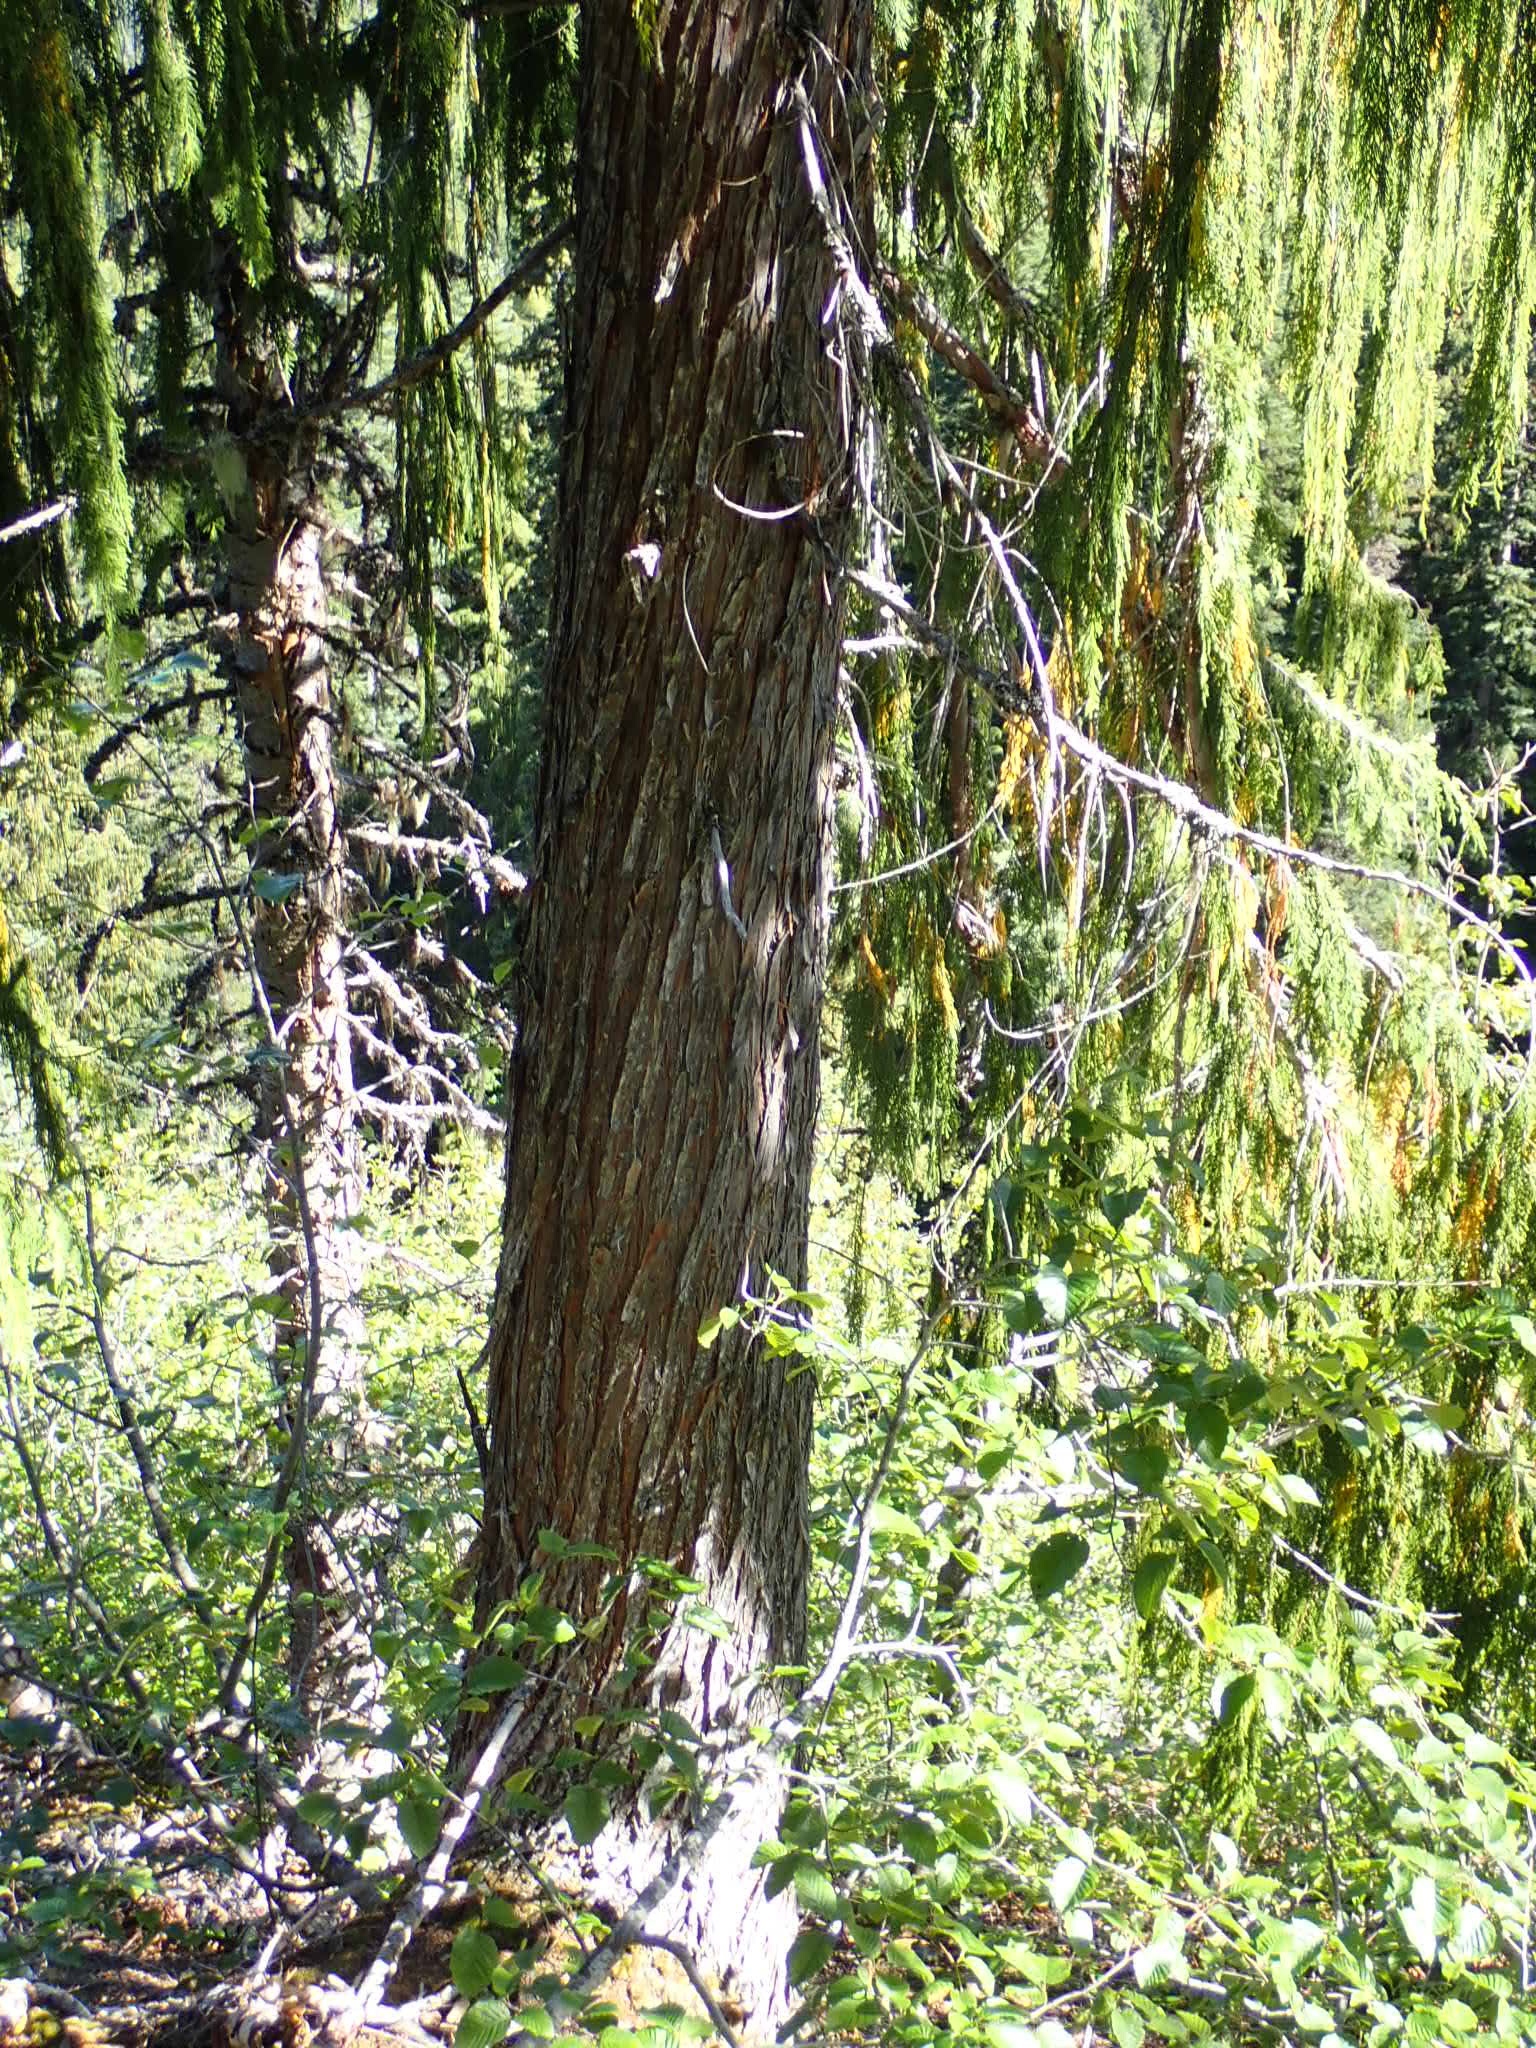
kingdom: Plantae
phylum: Tracheophyta
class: Pinopsida
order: Pinales
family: Cupressaceae
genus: Xanthocyparis
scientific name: Xanthocyparis nootkatensis
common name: Nootka cypress
